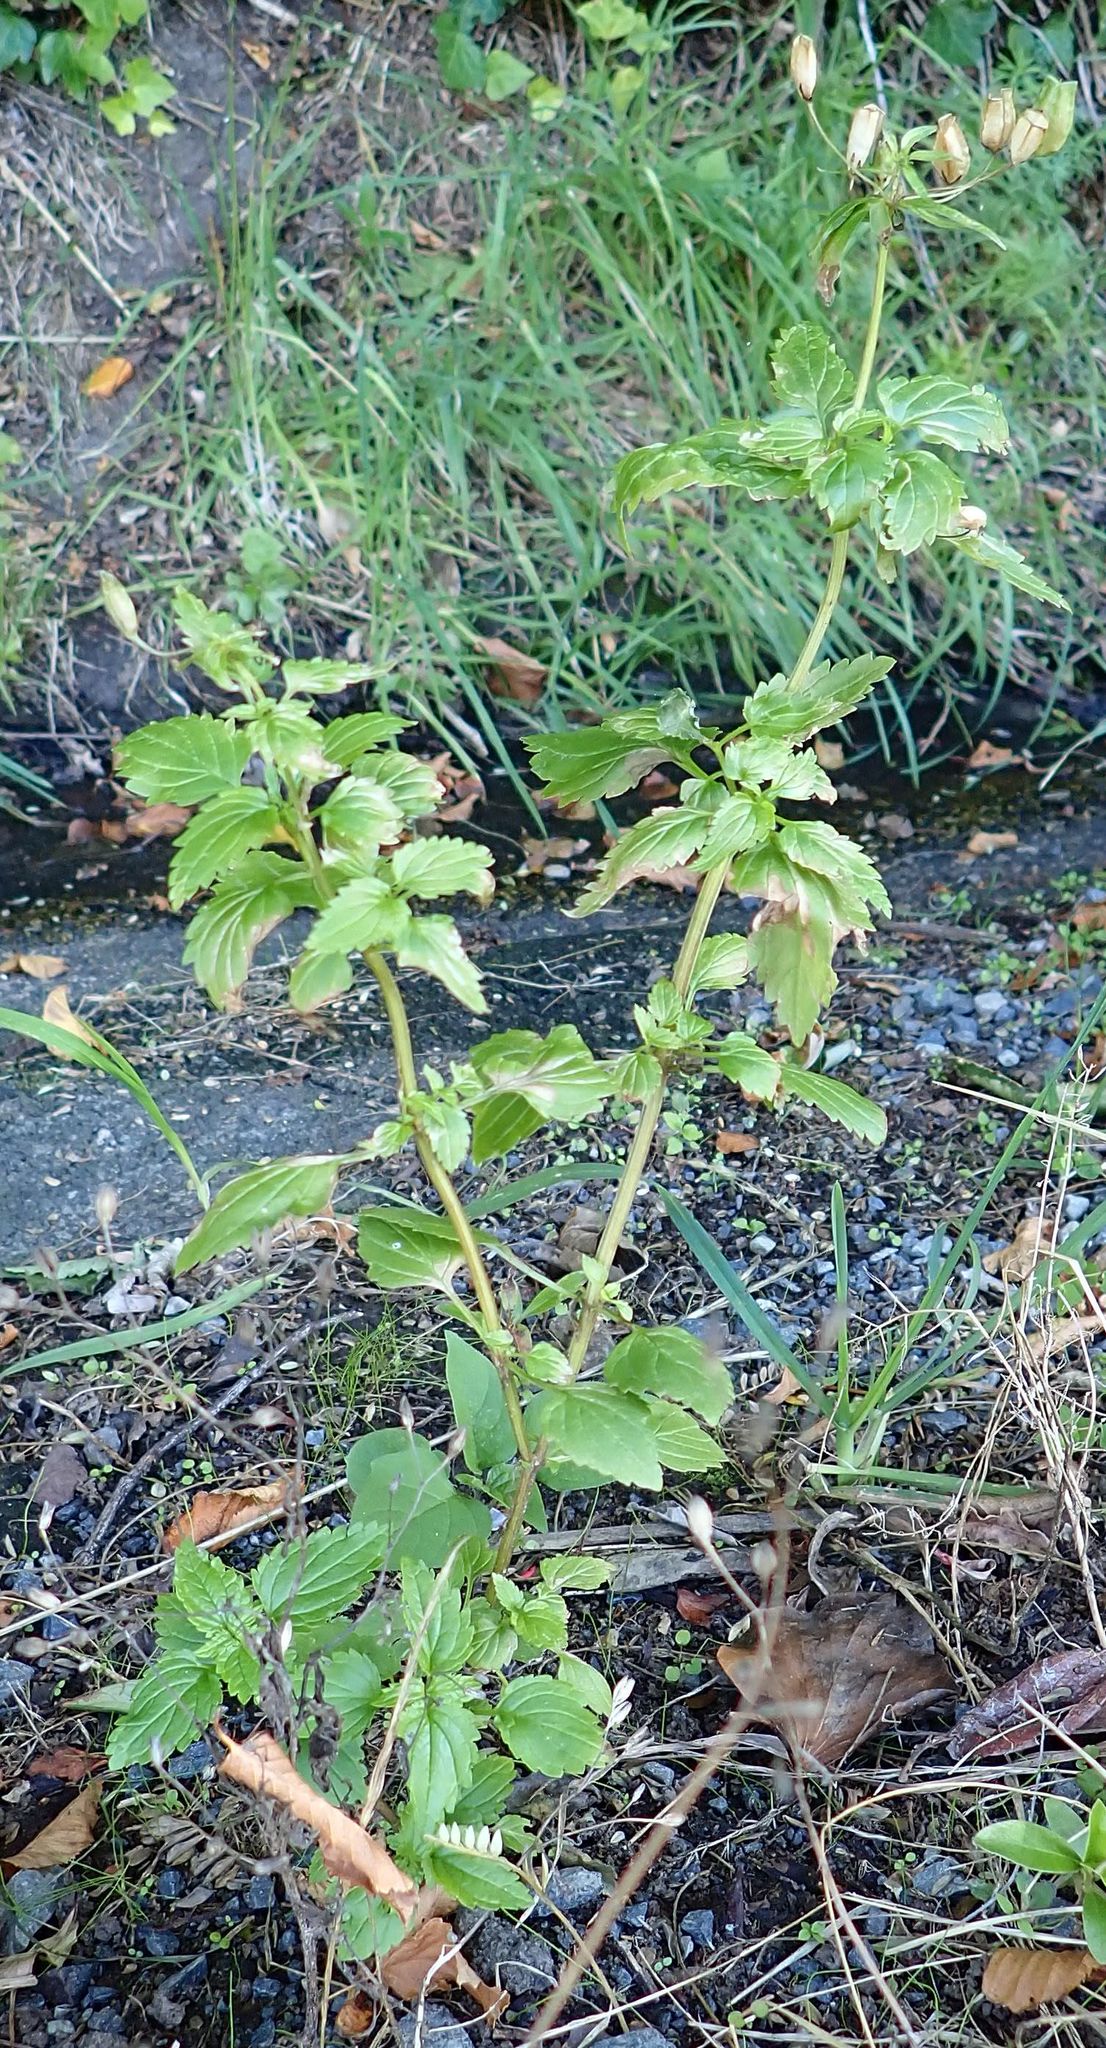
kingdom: Plantae
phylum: Tracheophyta
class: Magnoliopsida
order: Lamiales
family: Scrophulariaceae
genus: Nemesia
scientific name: Nemesia floribunda
